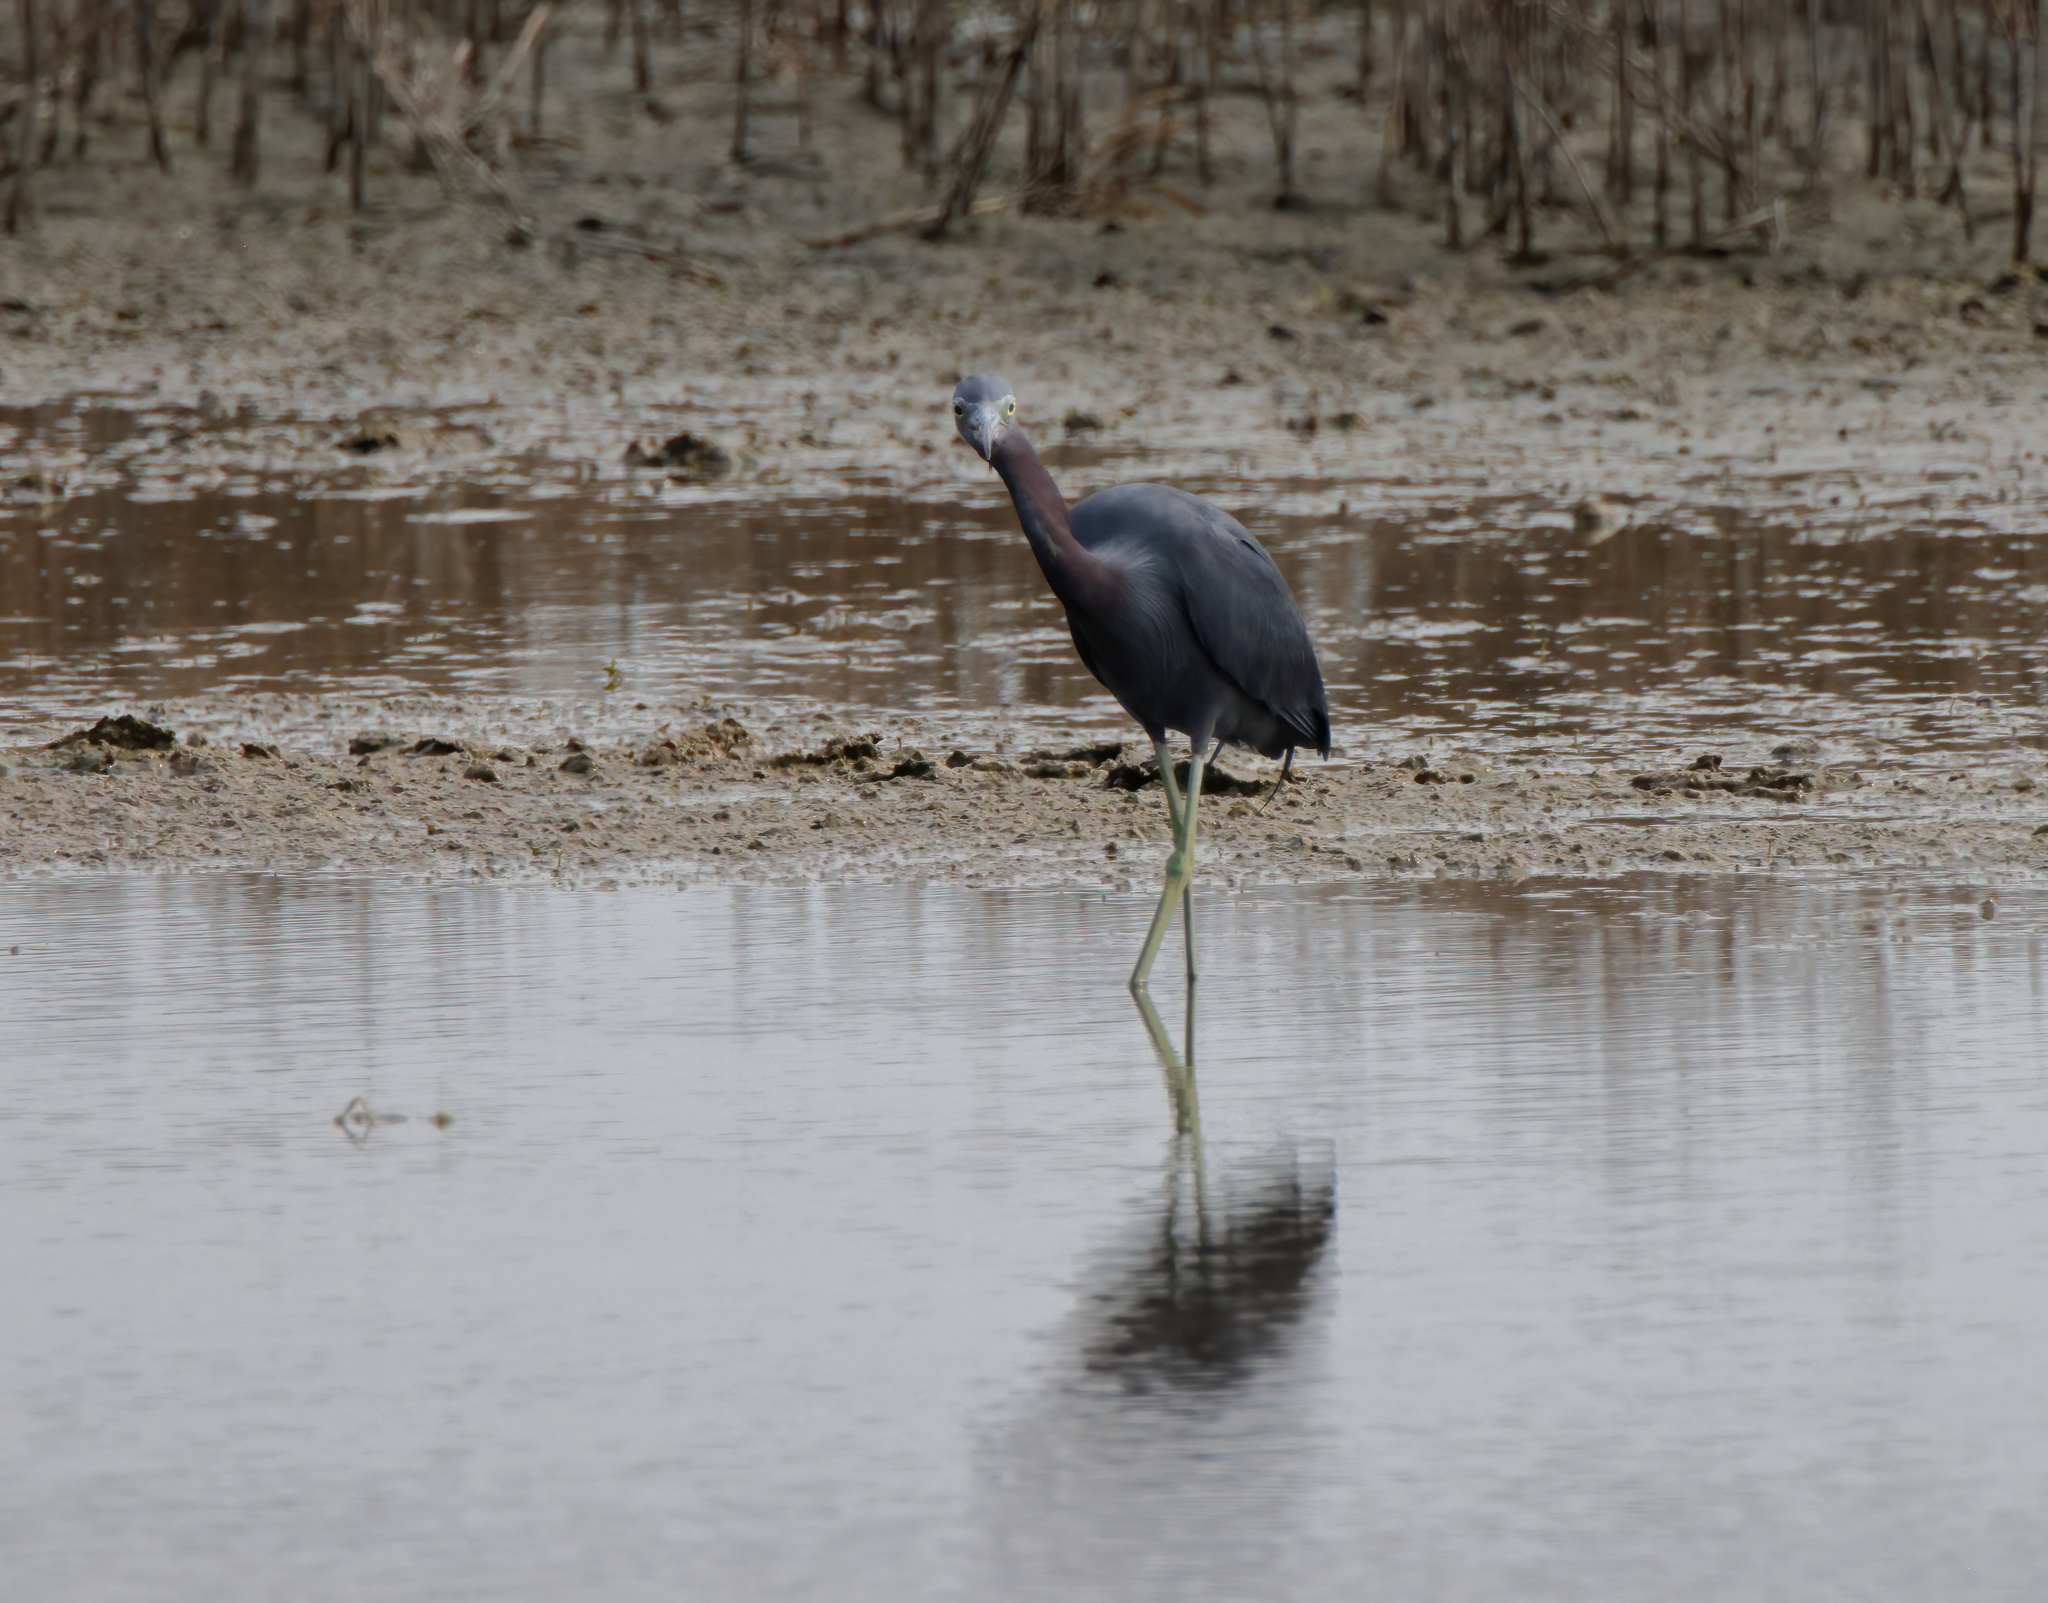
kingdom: Animalia
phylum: Chordata
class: Aves
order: Pelecaniformes
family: Ardeidae
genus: Egretta
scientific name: Egretta caerulea
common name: Little blue heron
